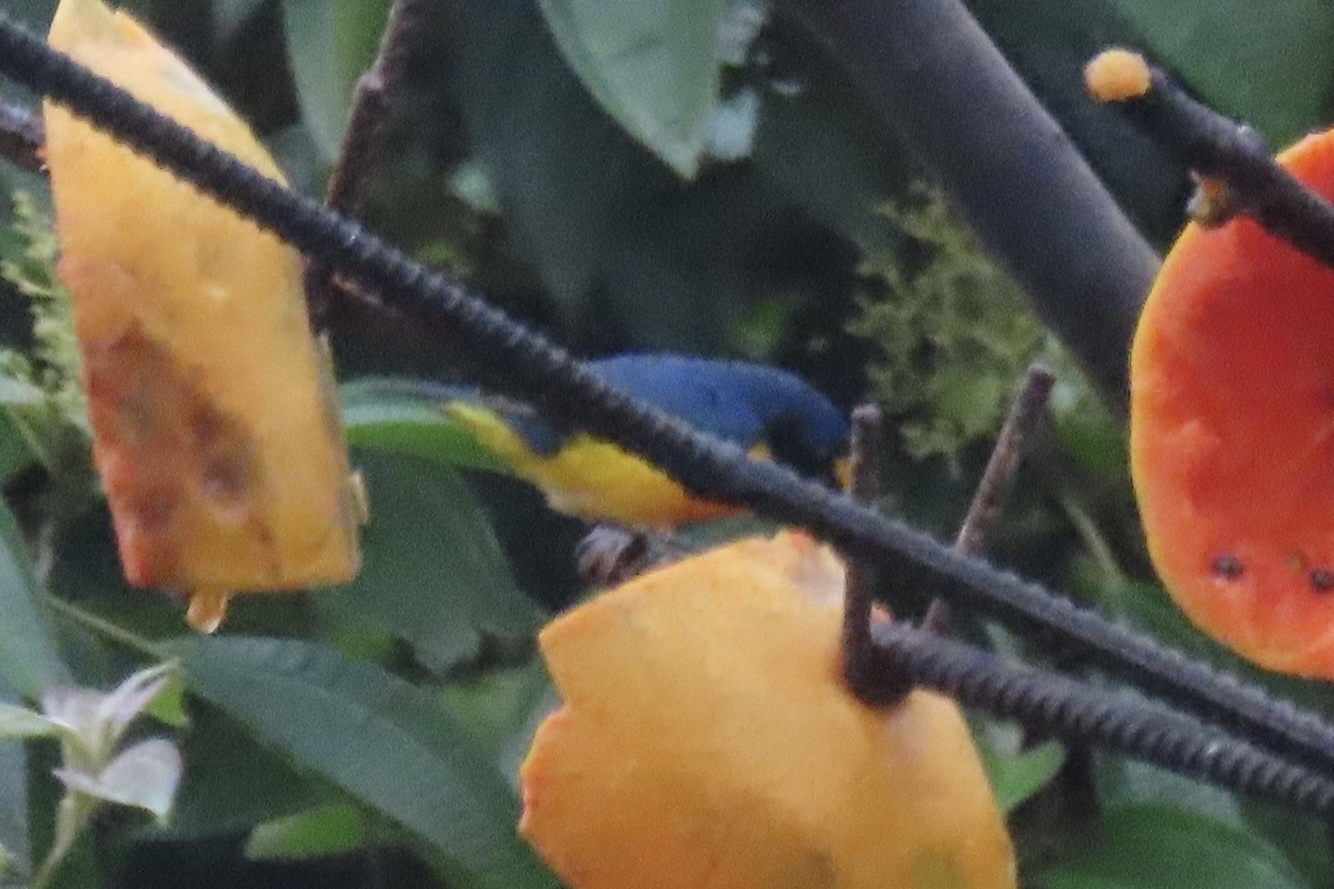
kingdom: Animalia
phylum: Chordata
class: Aves
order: Passeriformes
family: Fringillidae
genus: Euphonia
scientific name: Euphonia hirundinacea
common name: Yellow-throated euphonia
